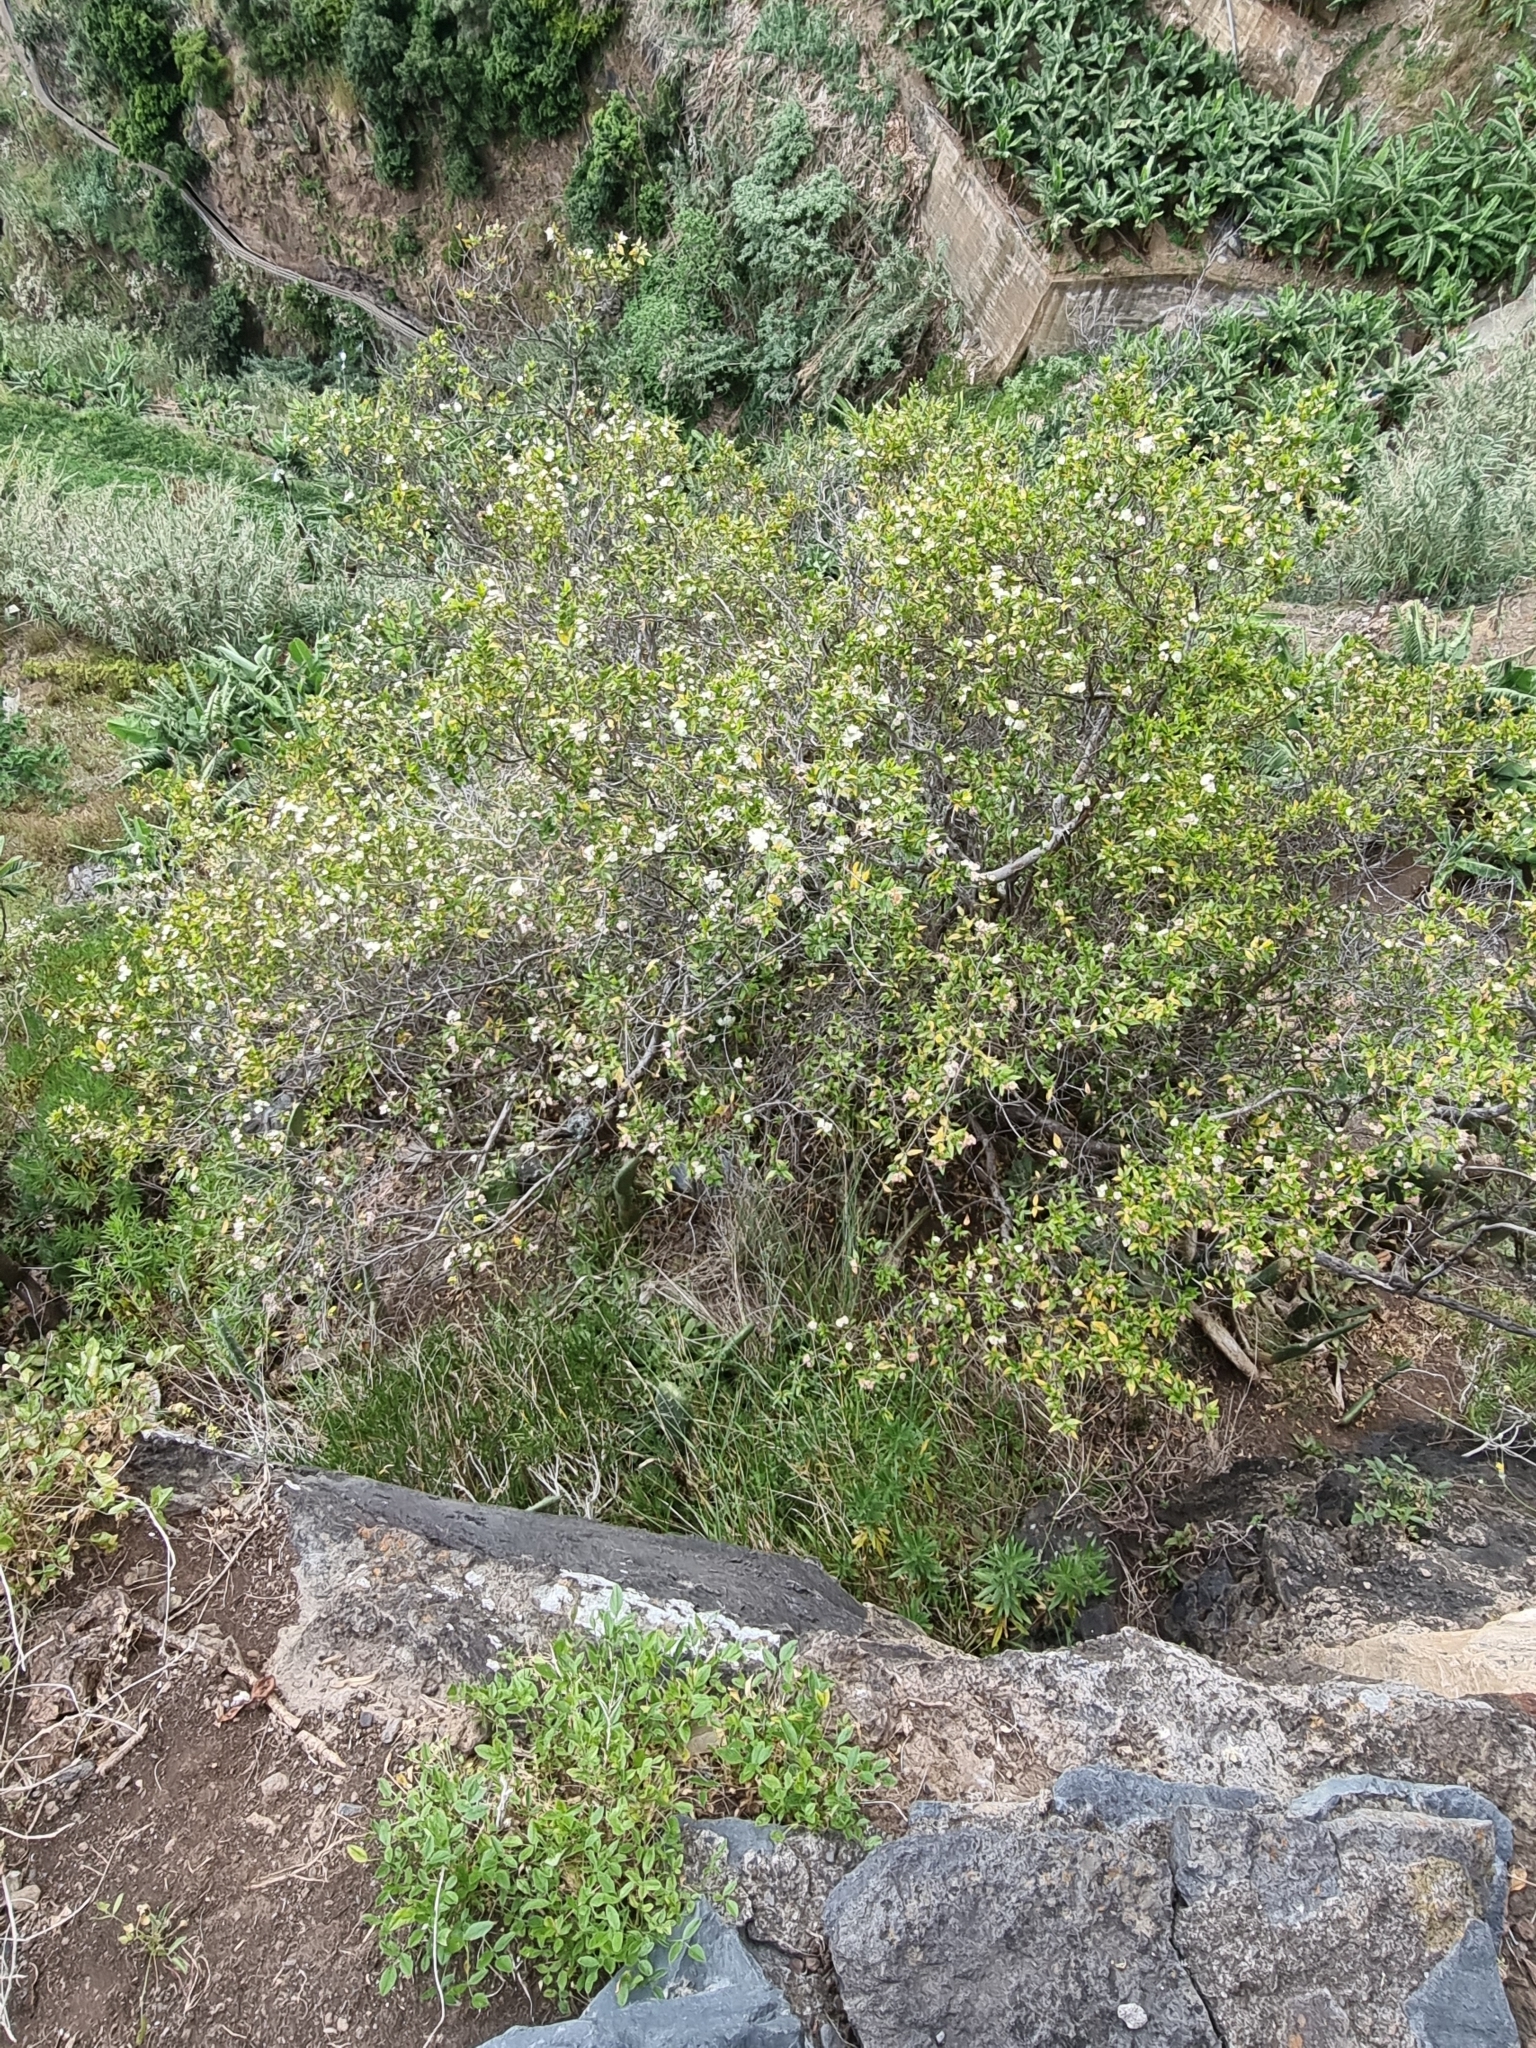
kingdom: Plantae
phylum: Tracheophyta
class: Magnoliopsida
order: Myrtales
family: Myrtaceae
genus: Myrtus
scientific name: Myrtus communis
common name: Myrtle
